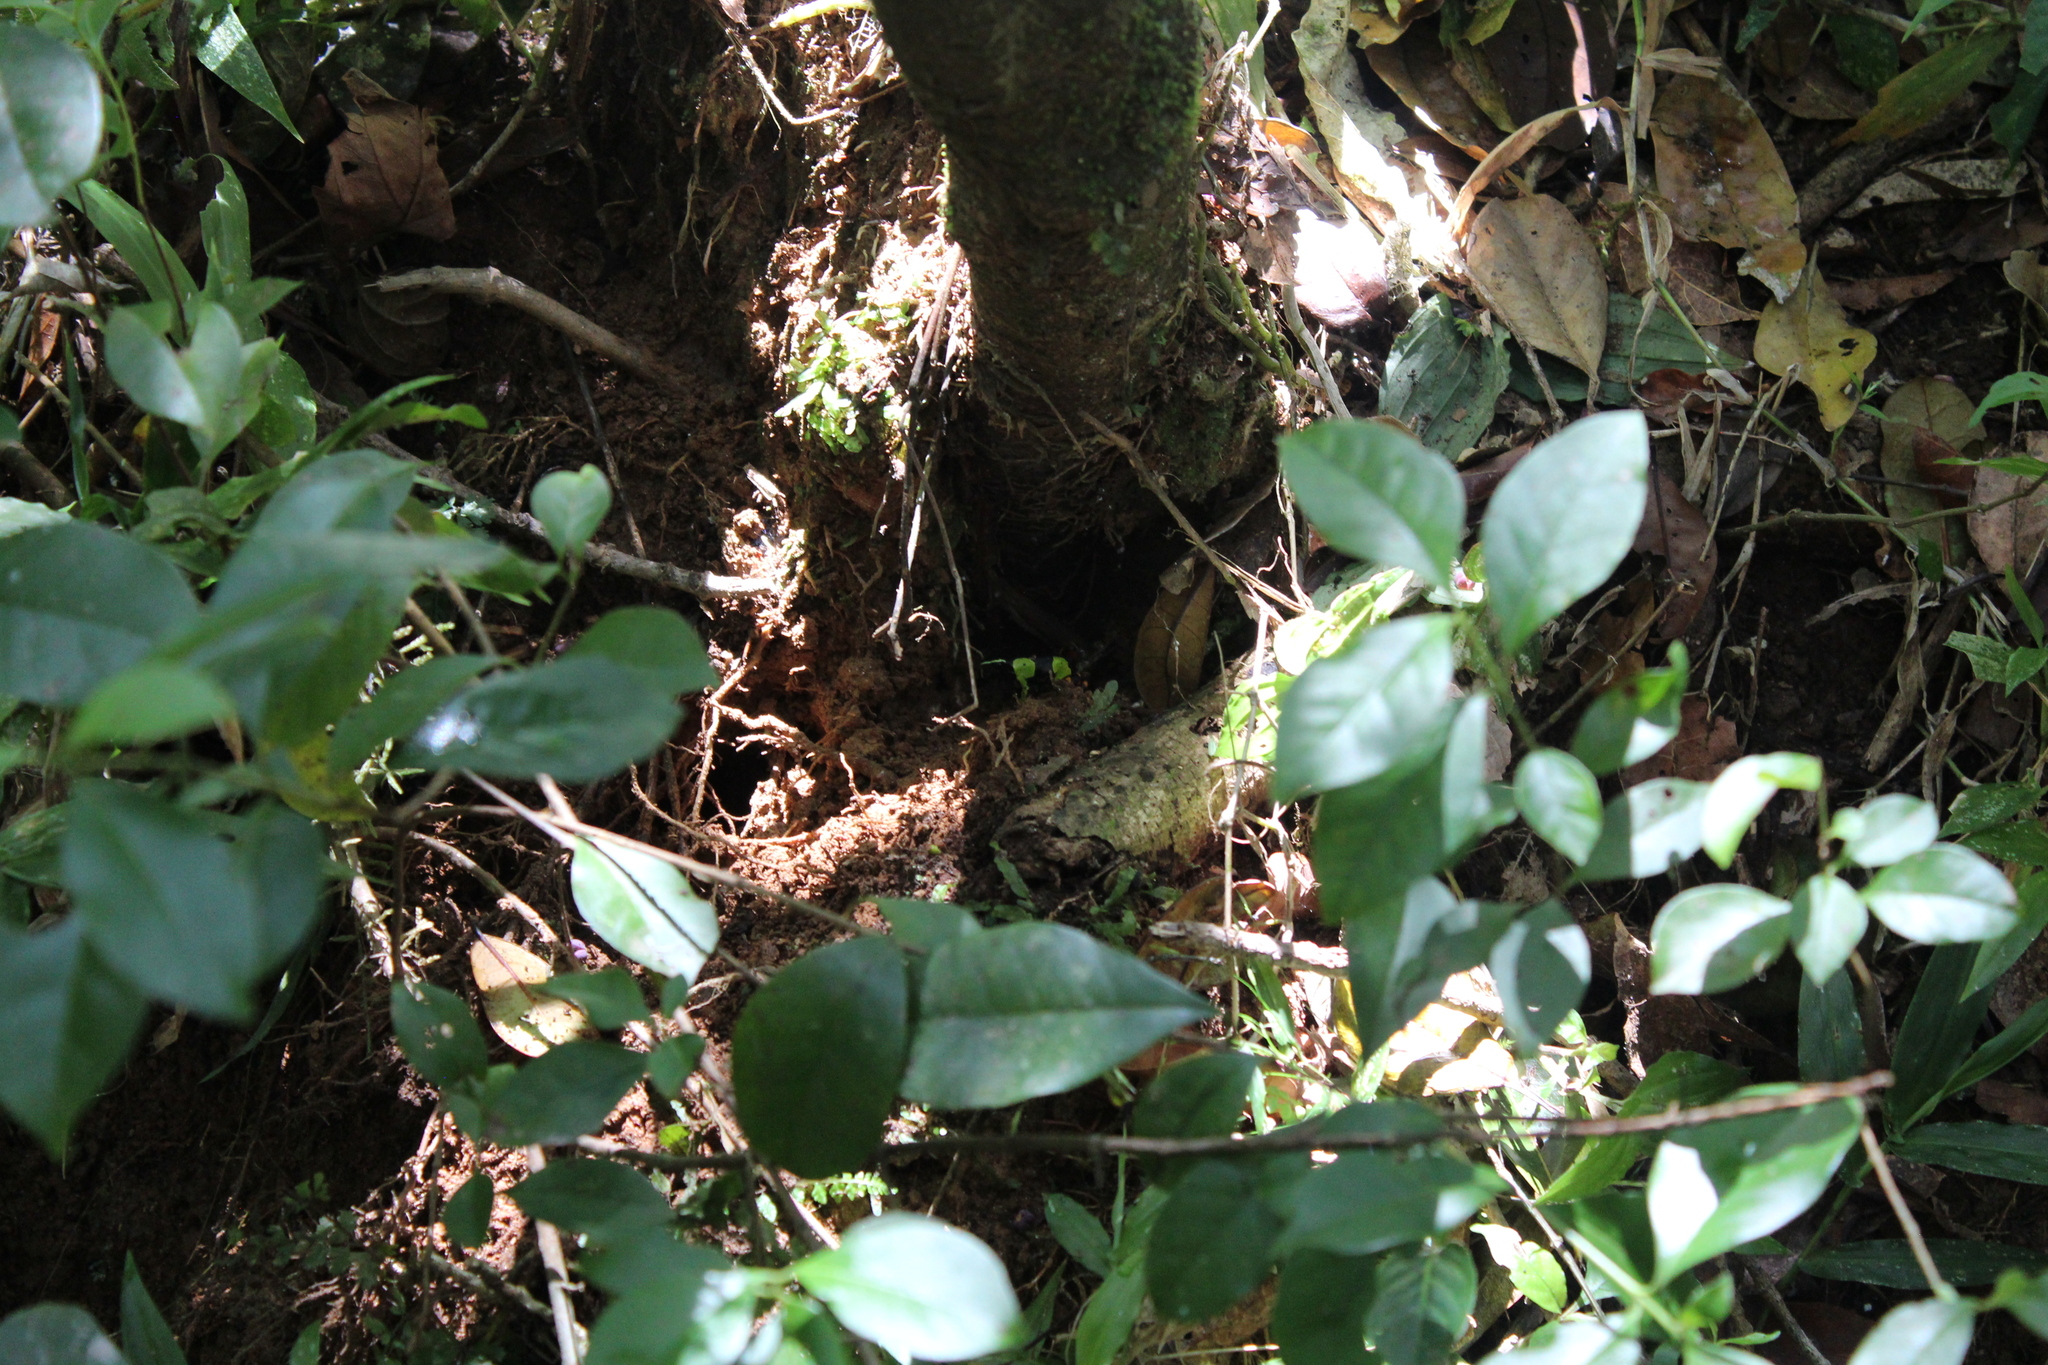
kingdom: Animalia
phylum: Chordata
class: Amphibia
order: Anura
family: Mantellidae
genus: Mantella
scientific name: Mantella baroni
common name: Baron's mantella
